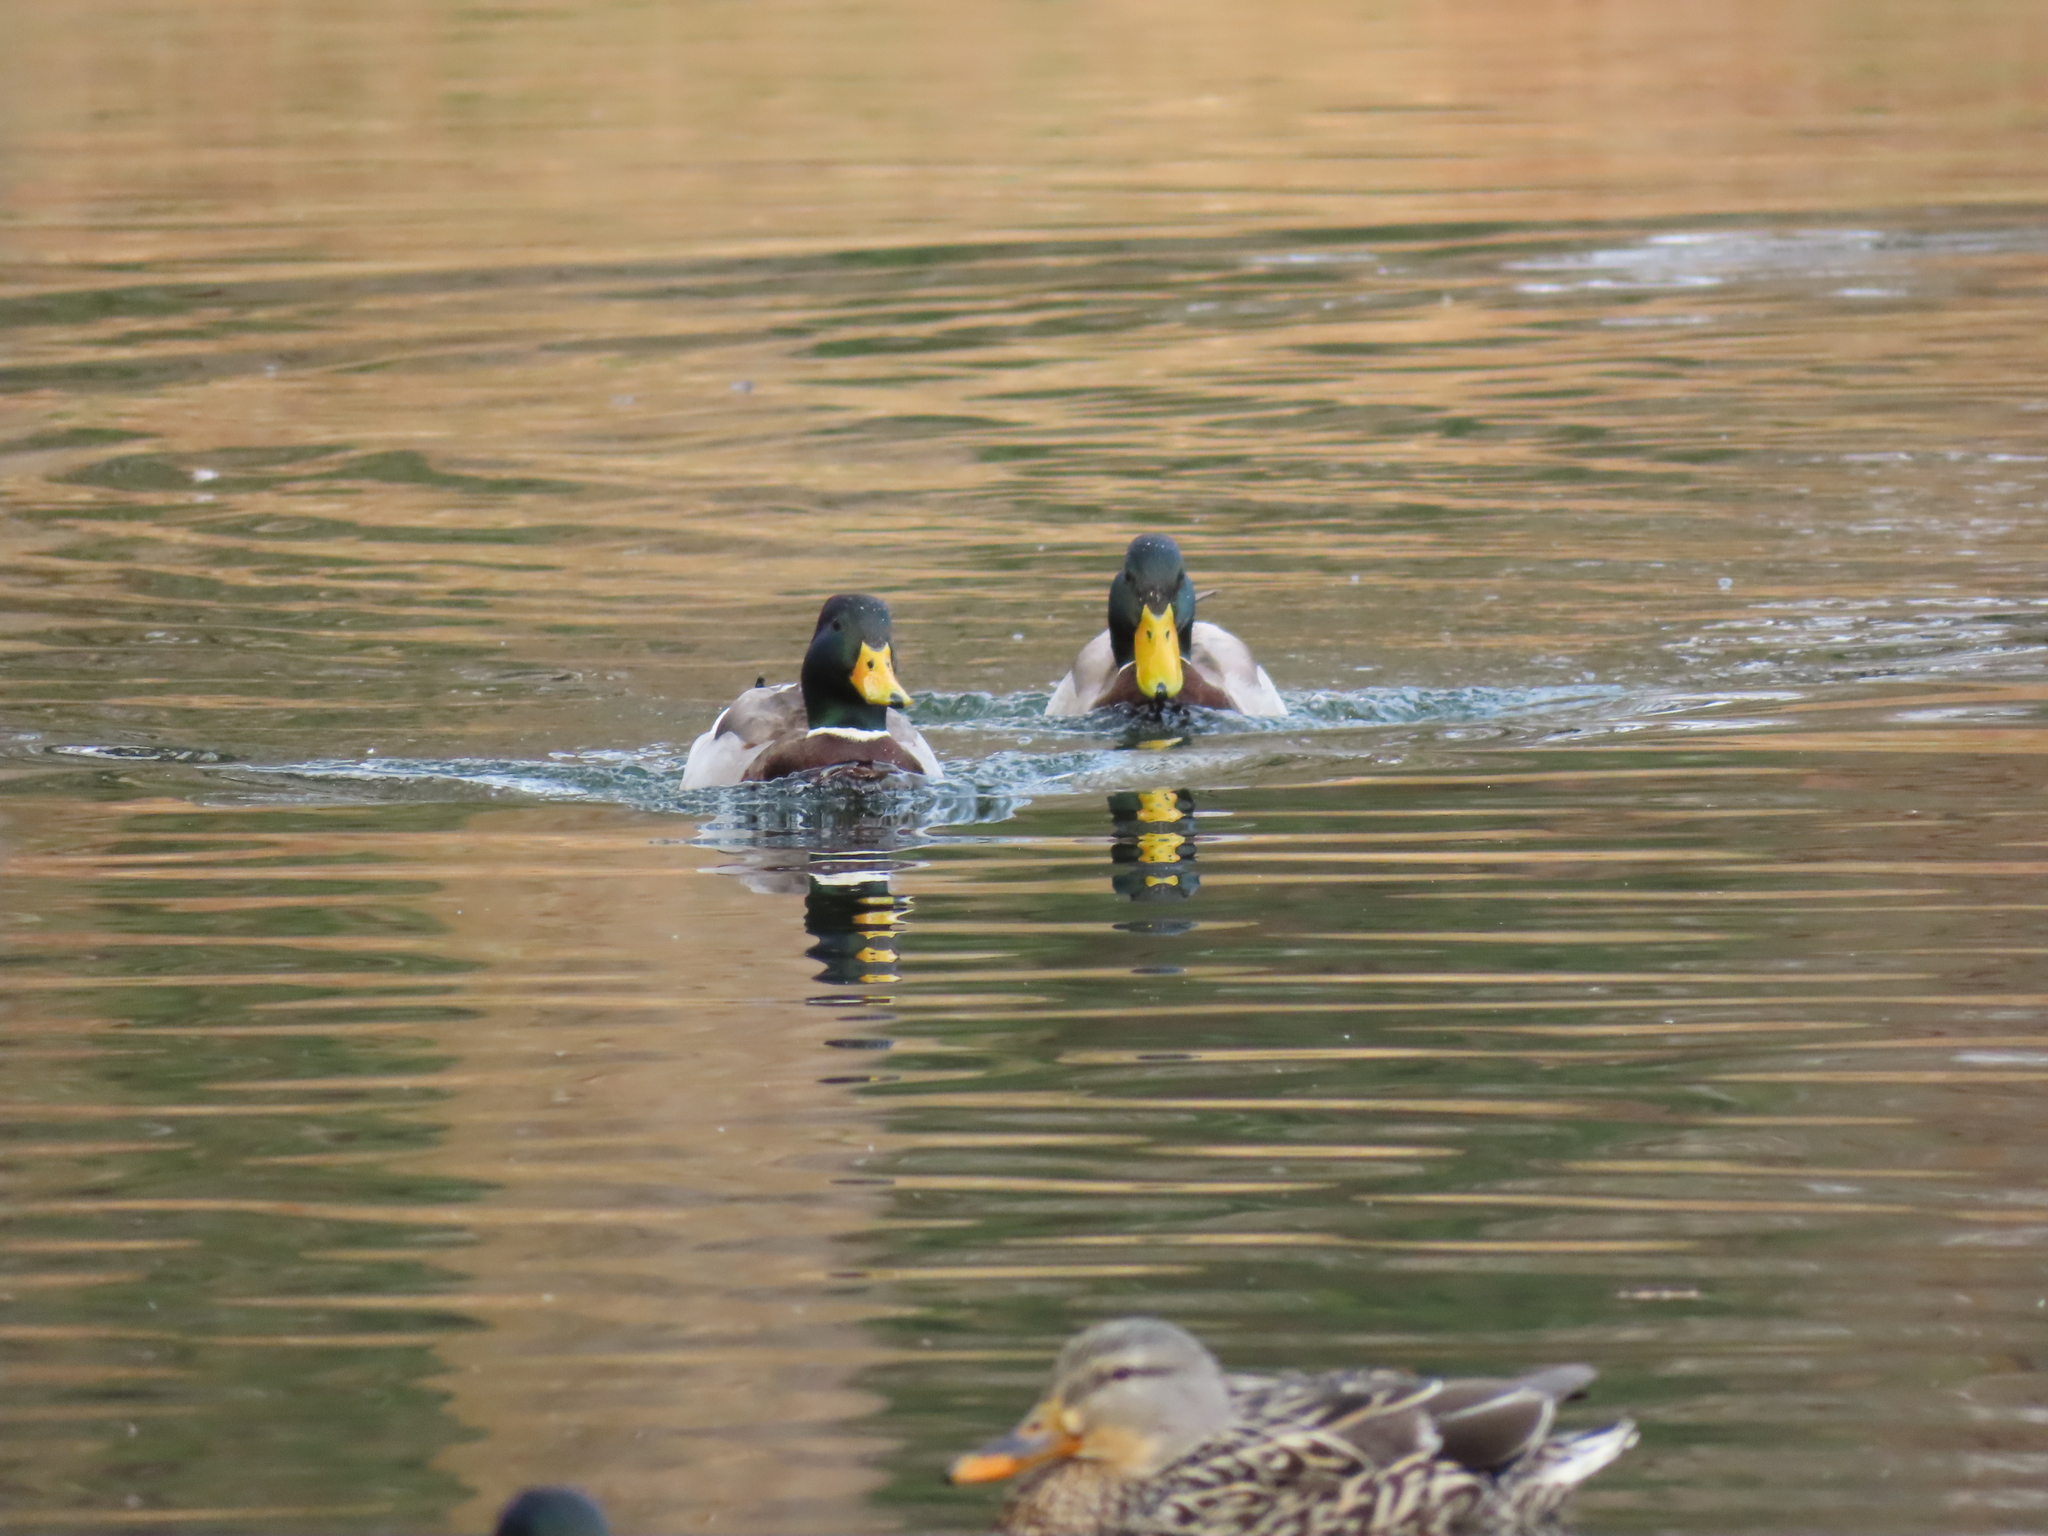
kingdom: Animalia
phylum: Chordata
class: Aves
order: Anseriformes
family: Anatidae
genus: Anas
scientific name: Anas platyrhynchos
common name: Mallard
